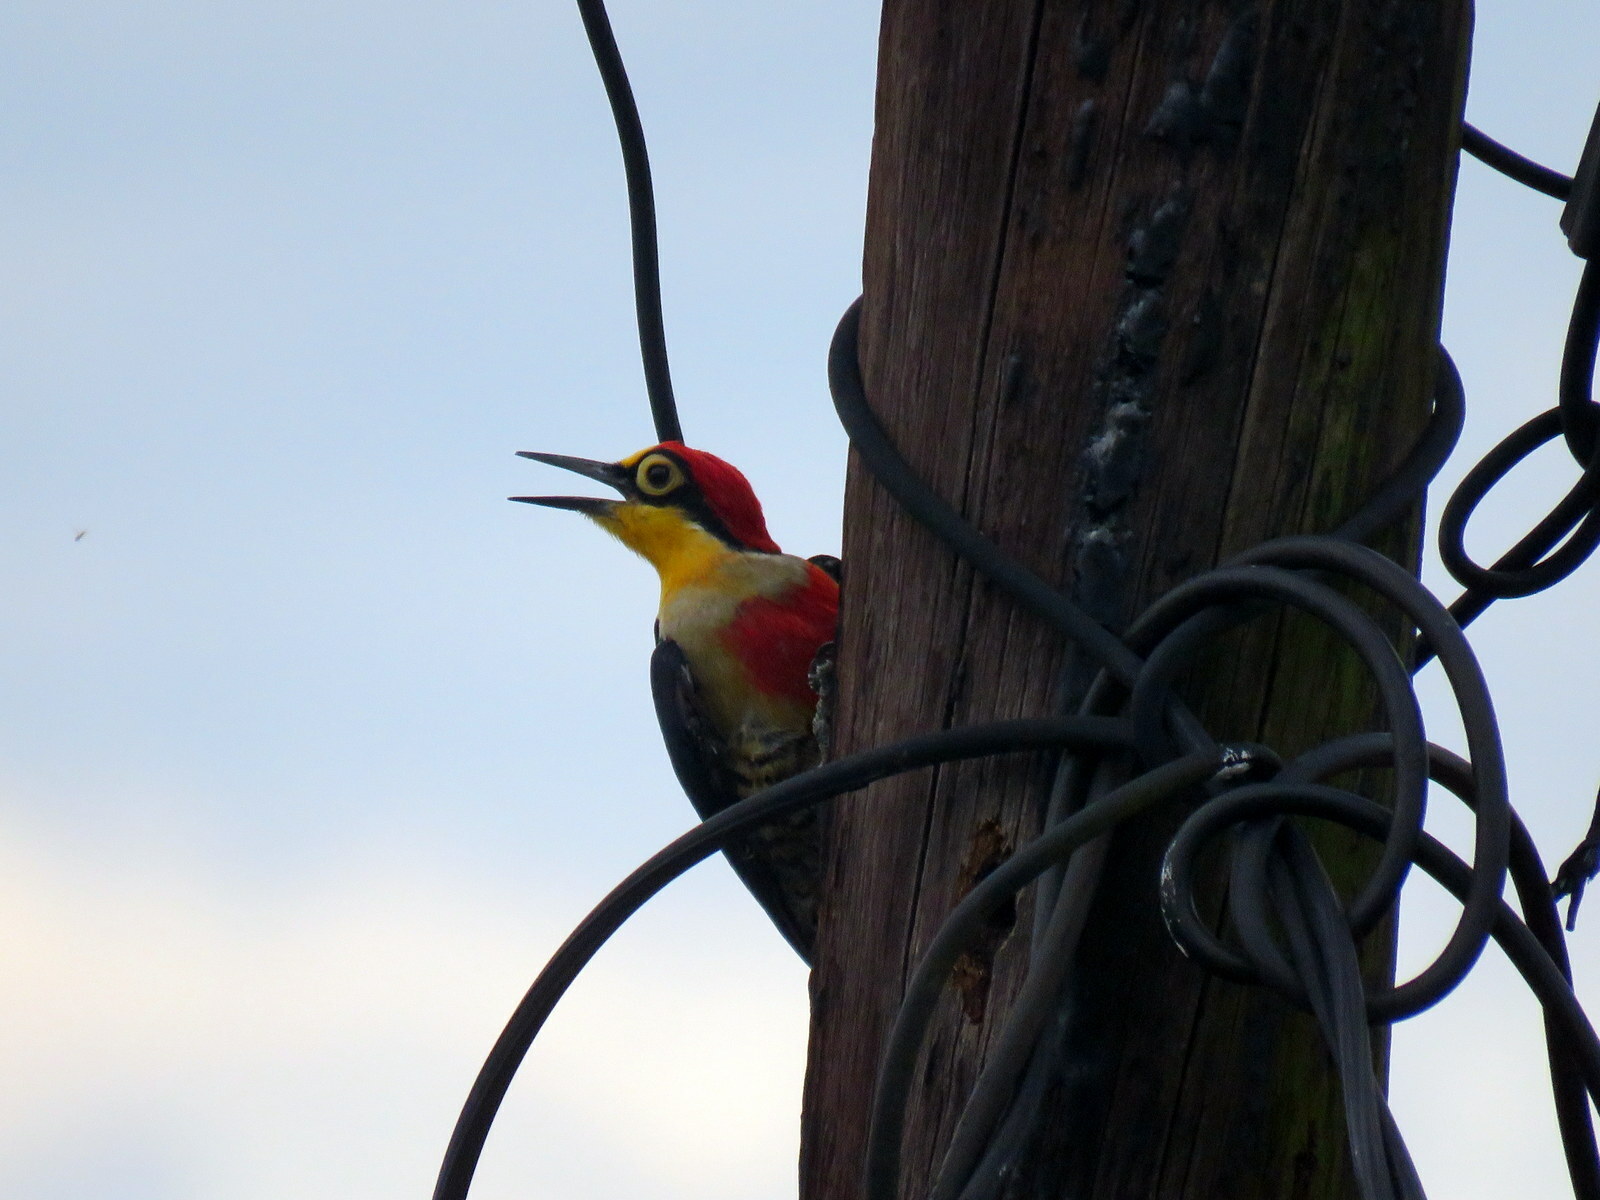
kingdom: Animalia
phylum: Chordata
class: Aves
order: Piciformes
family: Picidae
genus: Melanerpes
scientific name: Melanerpes flavifrons
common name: Yellow-fronted woodpecker
